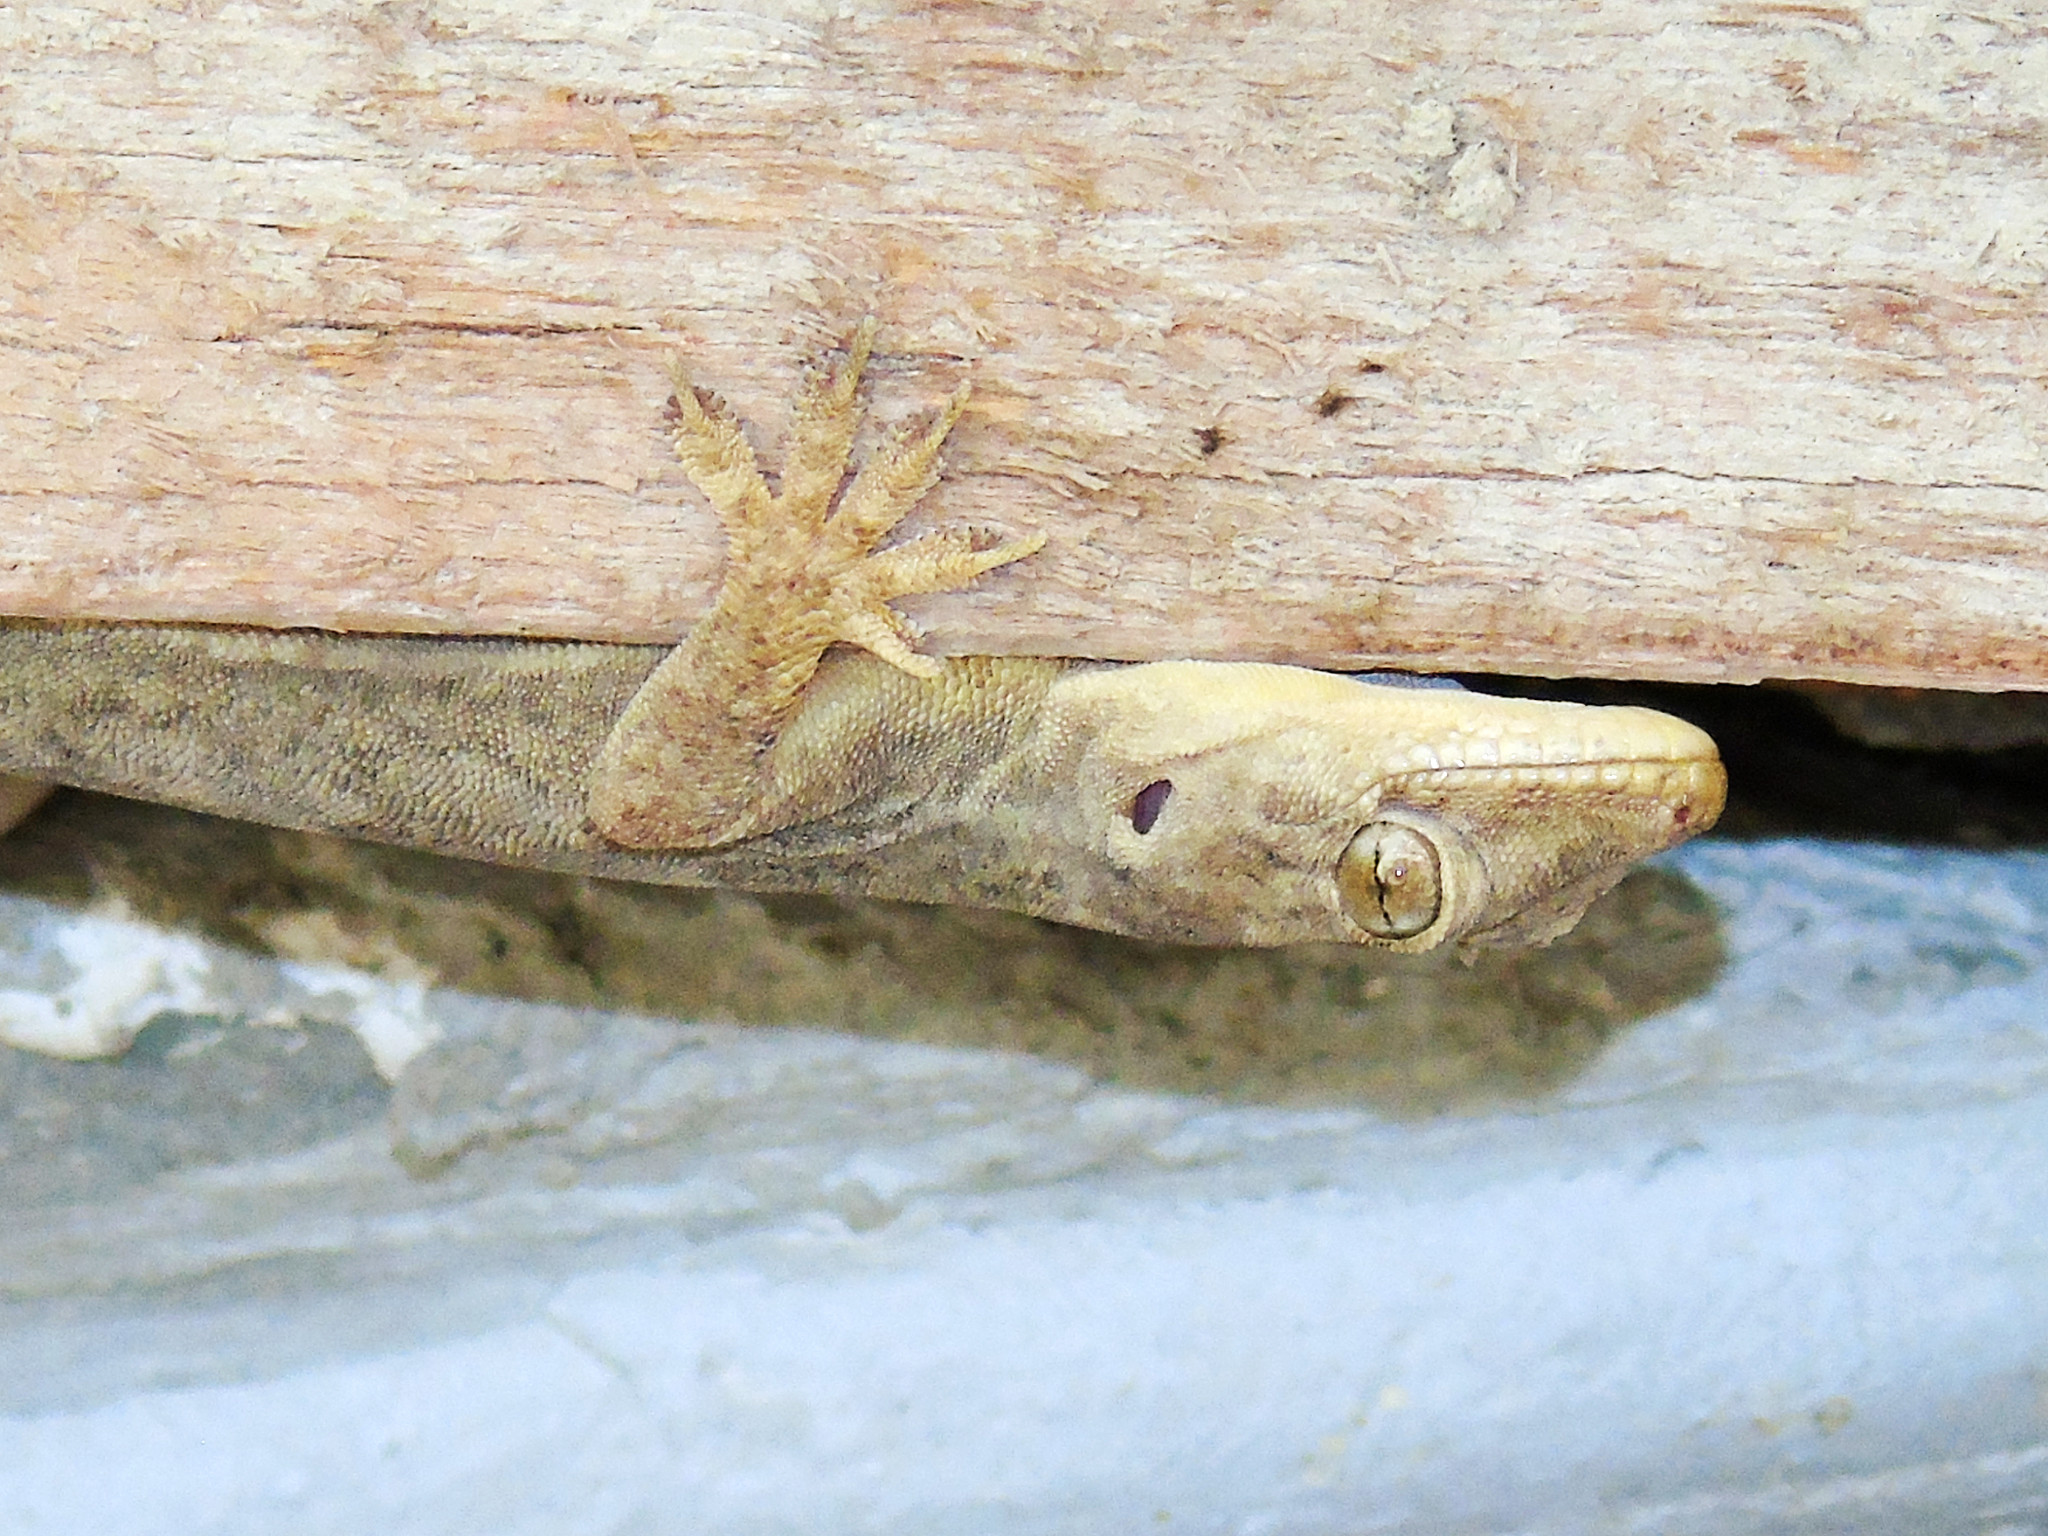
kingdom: Animalia
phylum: Chordata
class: Squamata
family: Gekkonidae
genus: Hemidactylus
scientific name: Hemidactylus flaviviridis
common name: Northern house gecko
